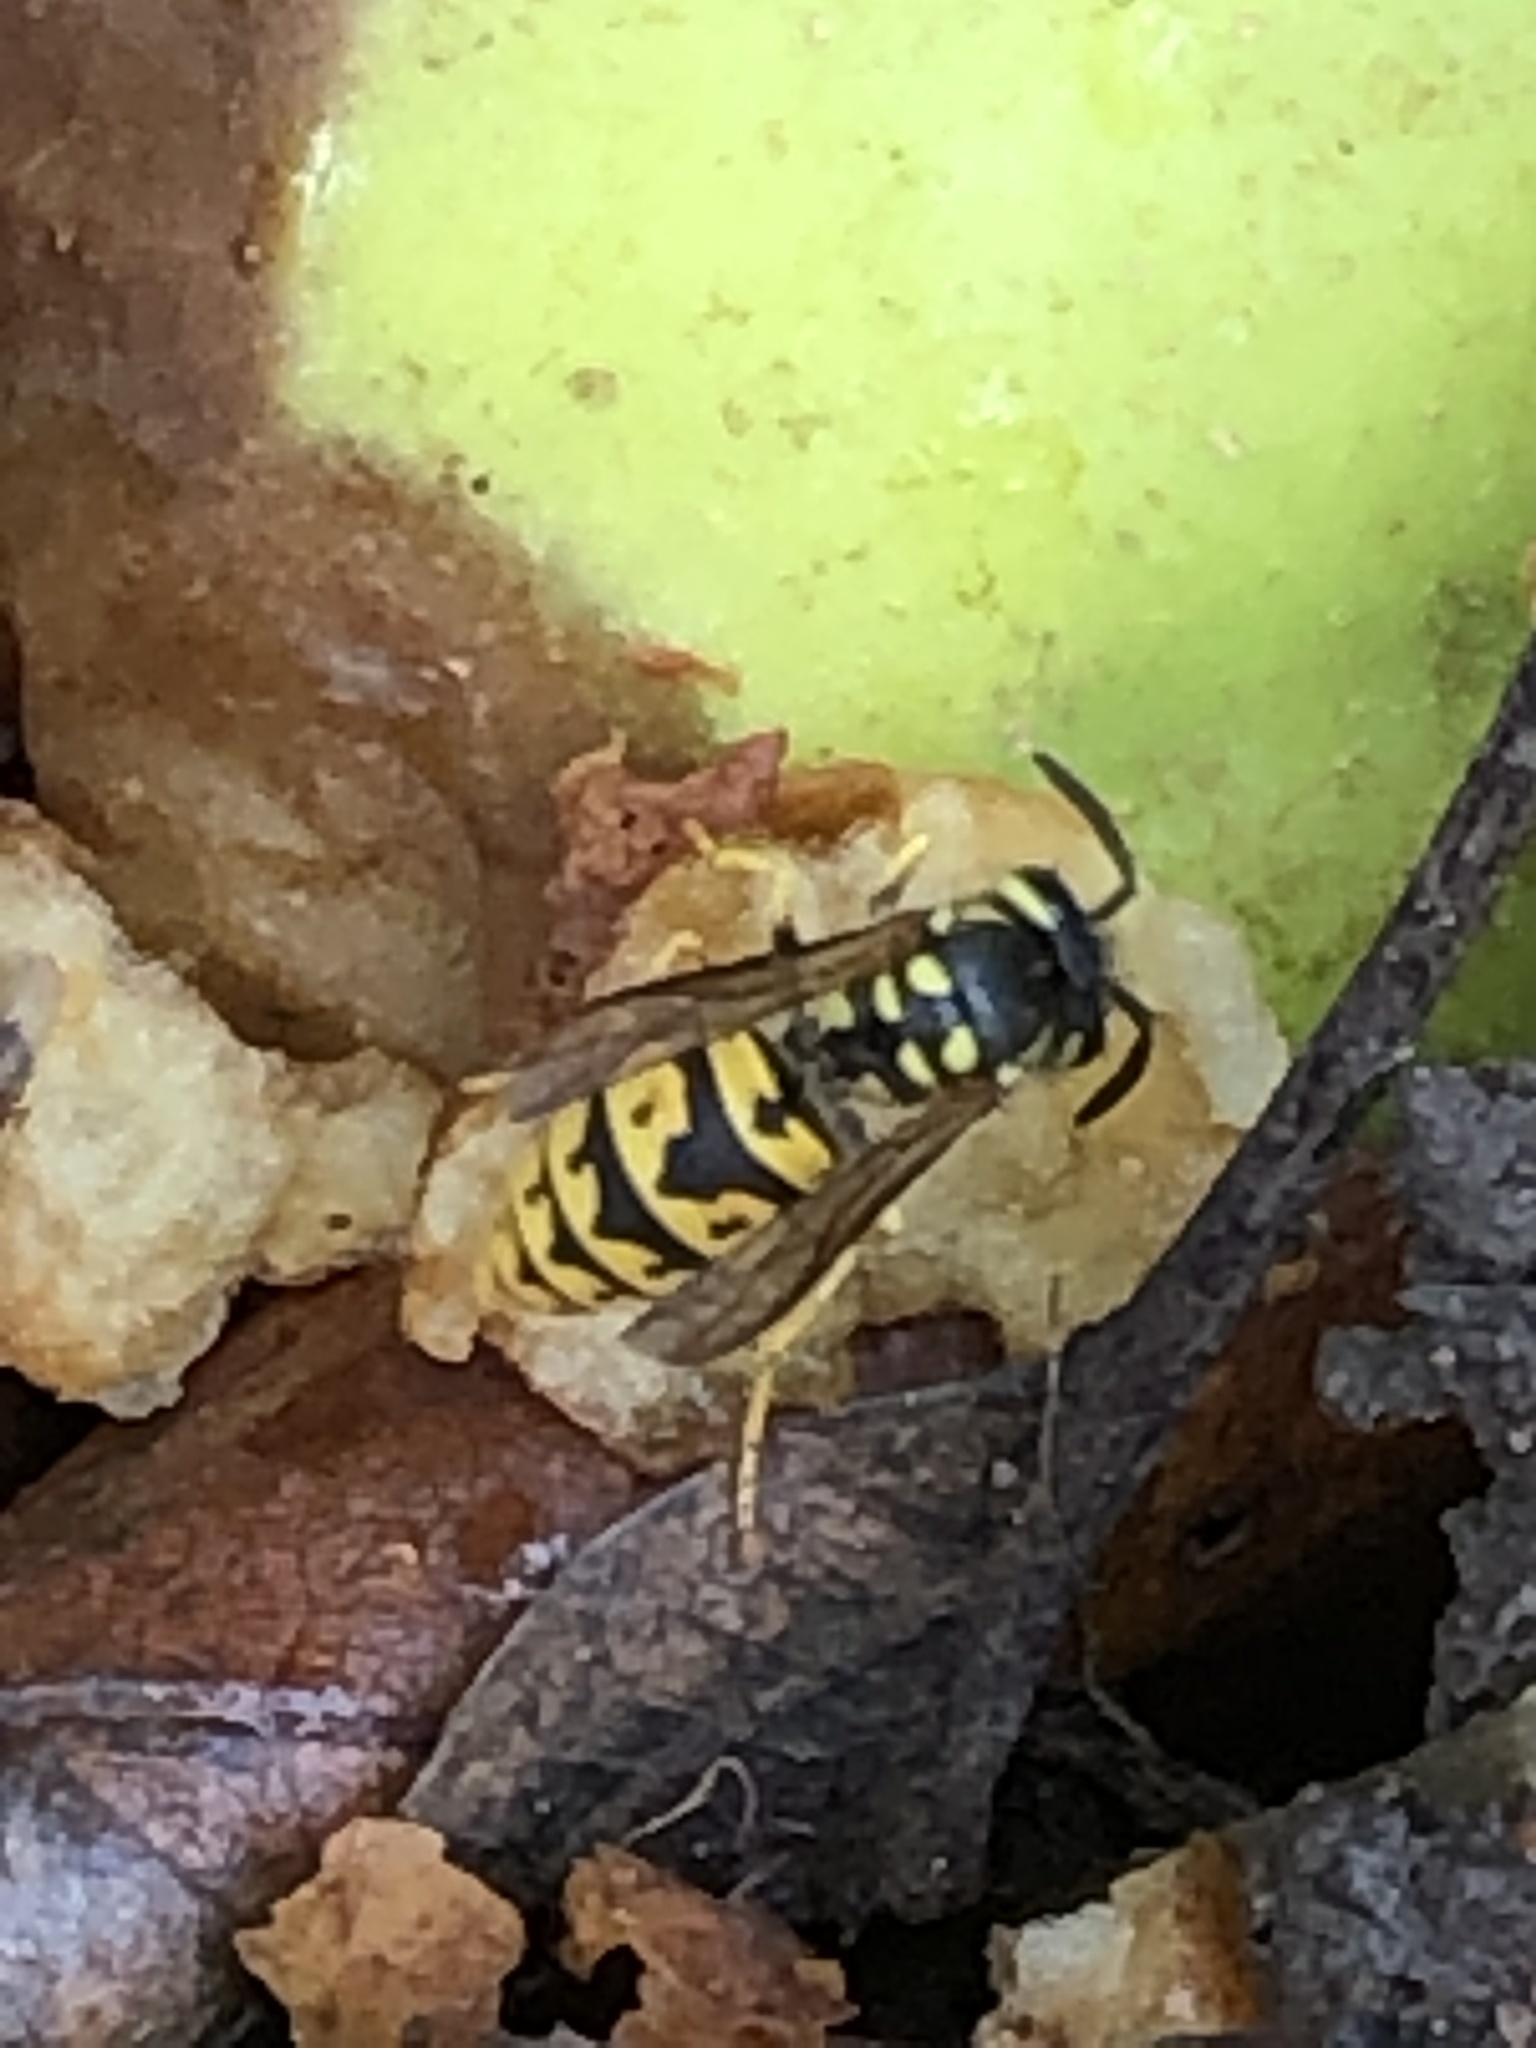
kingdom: Animalia
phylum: Arthropoda
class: Insecta
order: Hymenoptera
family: Vespidae
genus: Vespula
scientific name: Vespula germanica
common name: German wasp
